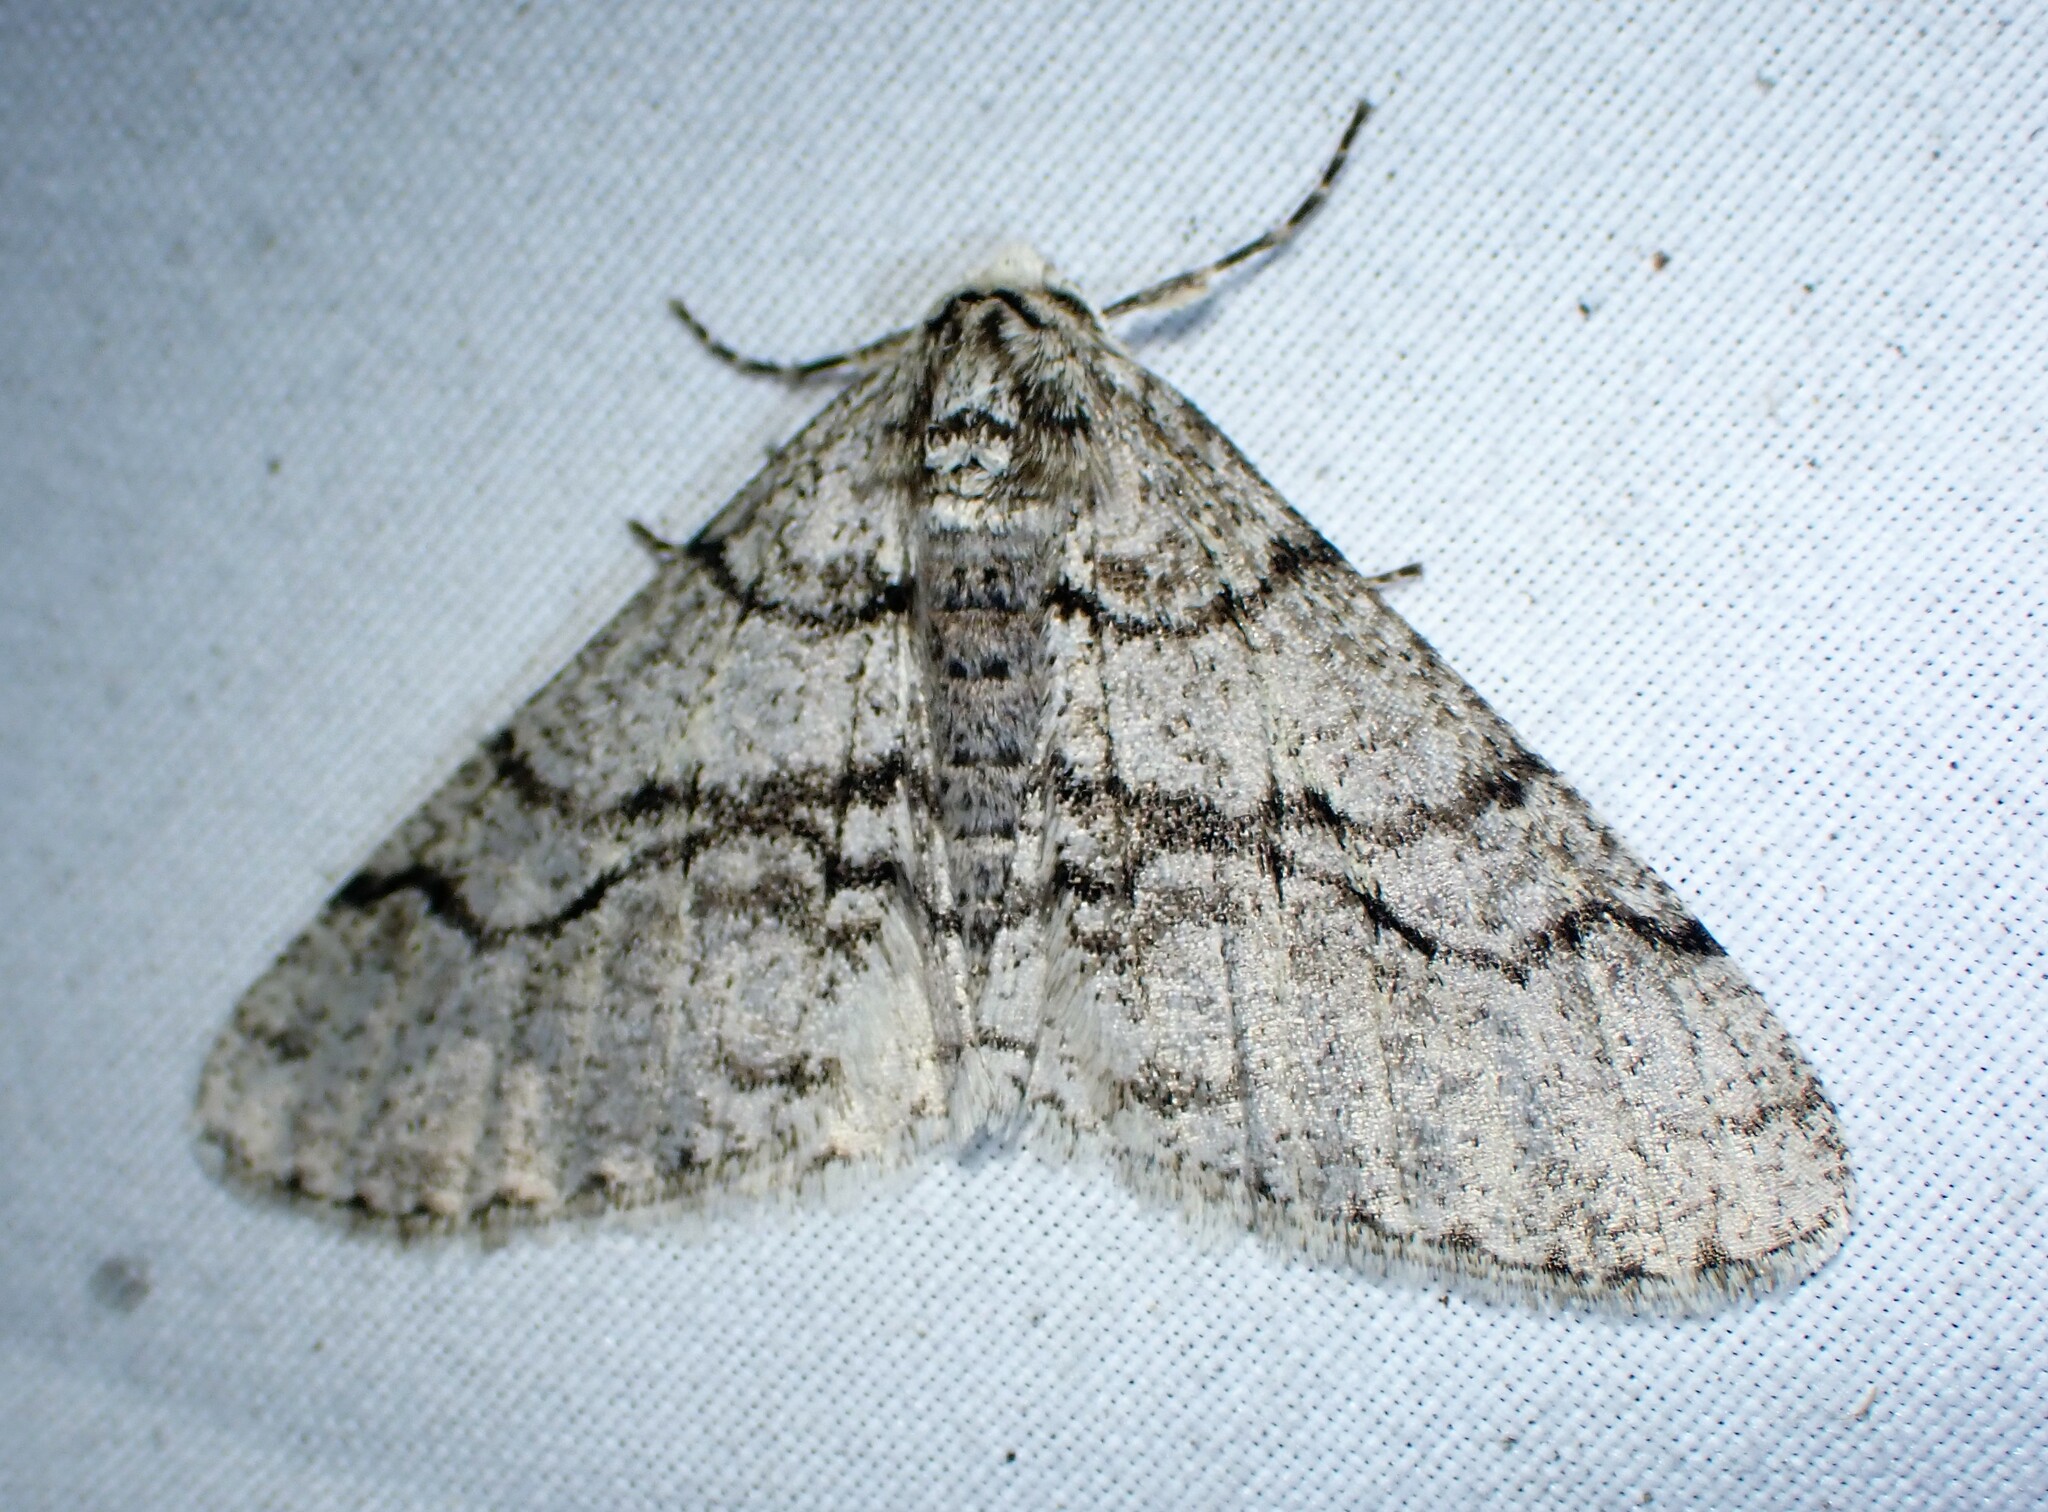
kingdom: Animalia
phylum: Arthropoda
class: Insecta
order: Lepidoptera
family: Geometridae
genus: Phigalia
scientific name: Phigalia titea
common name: Spiny looper
